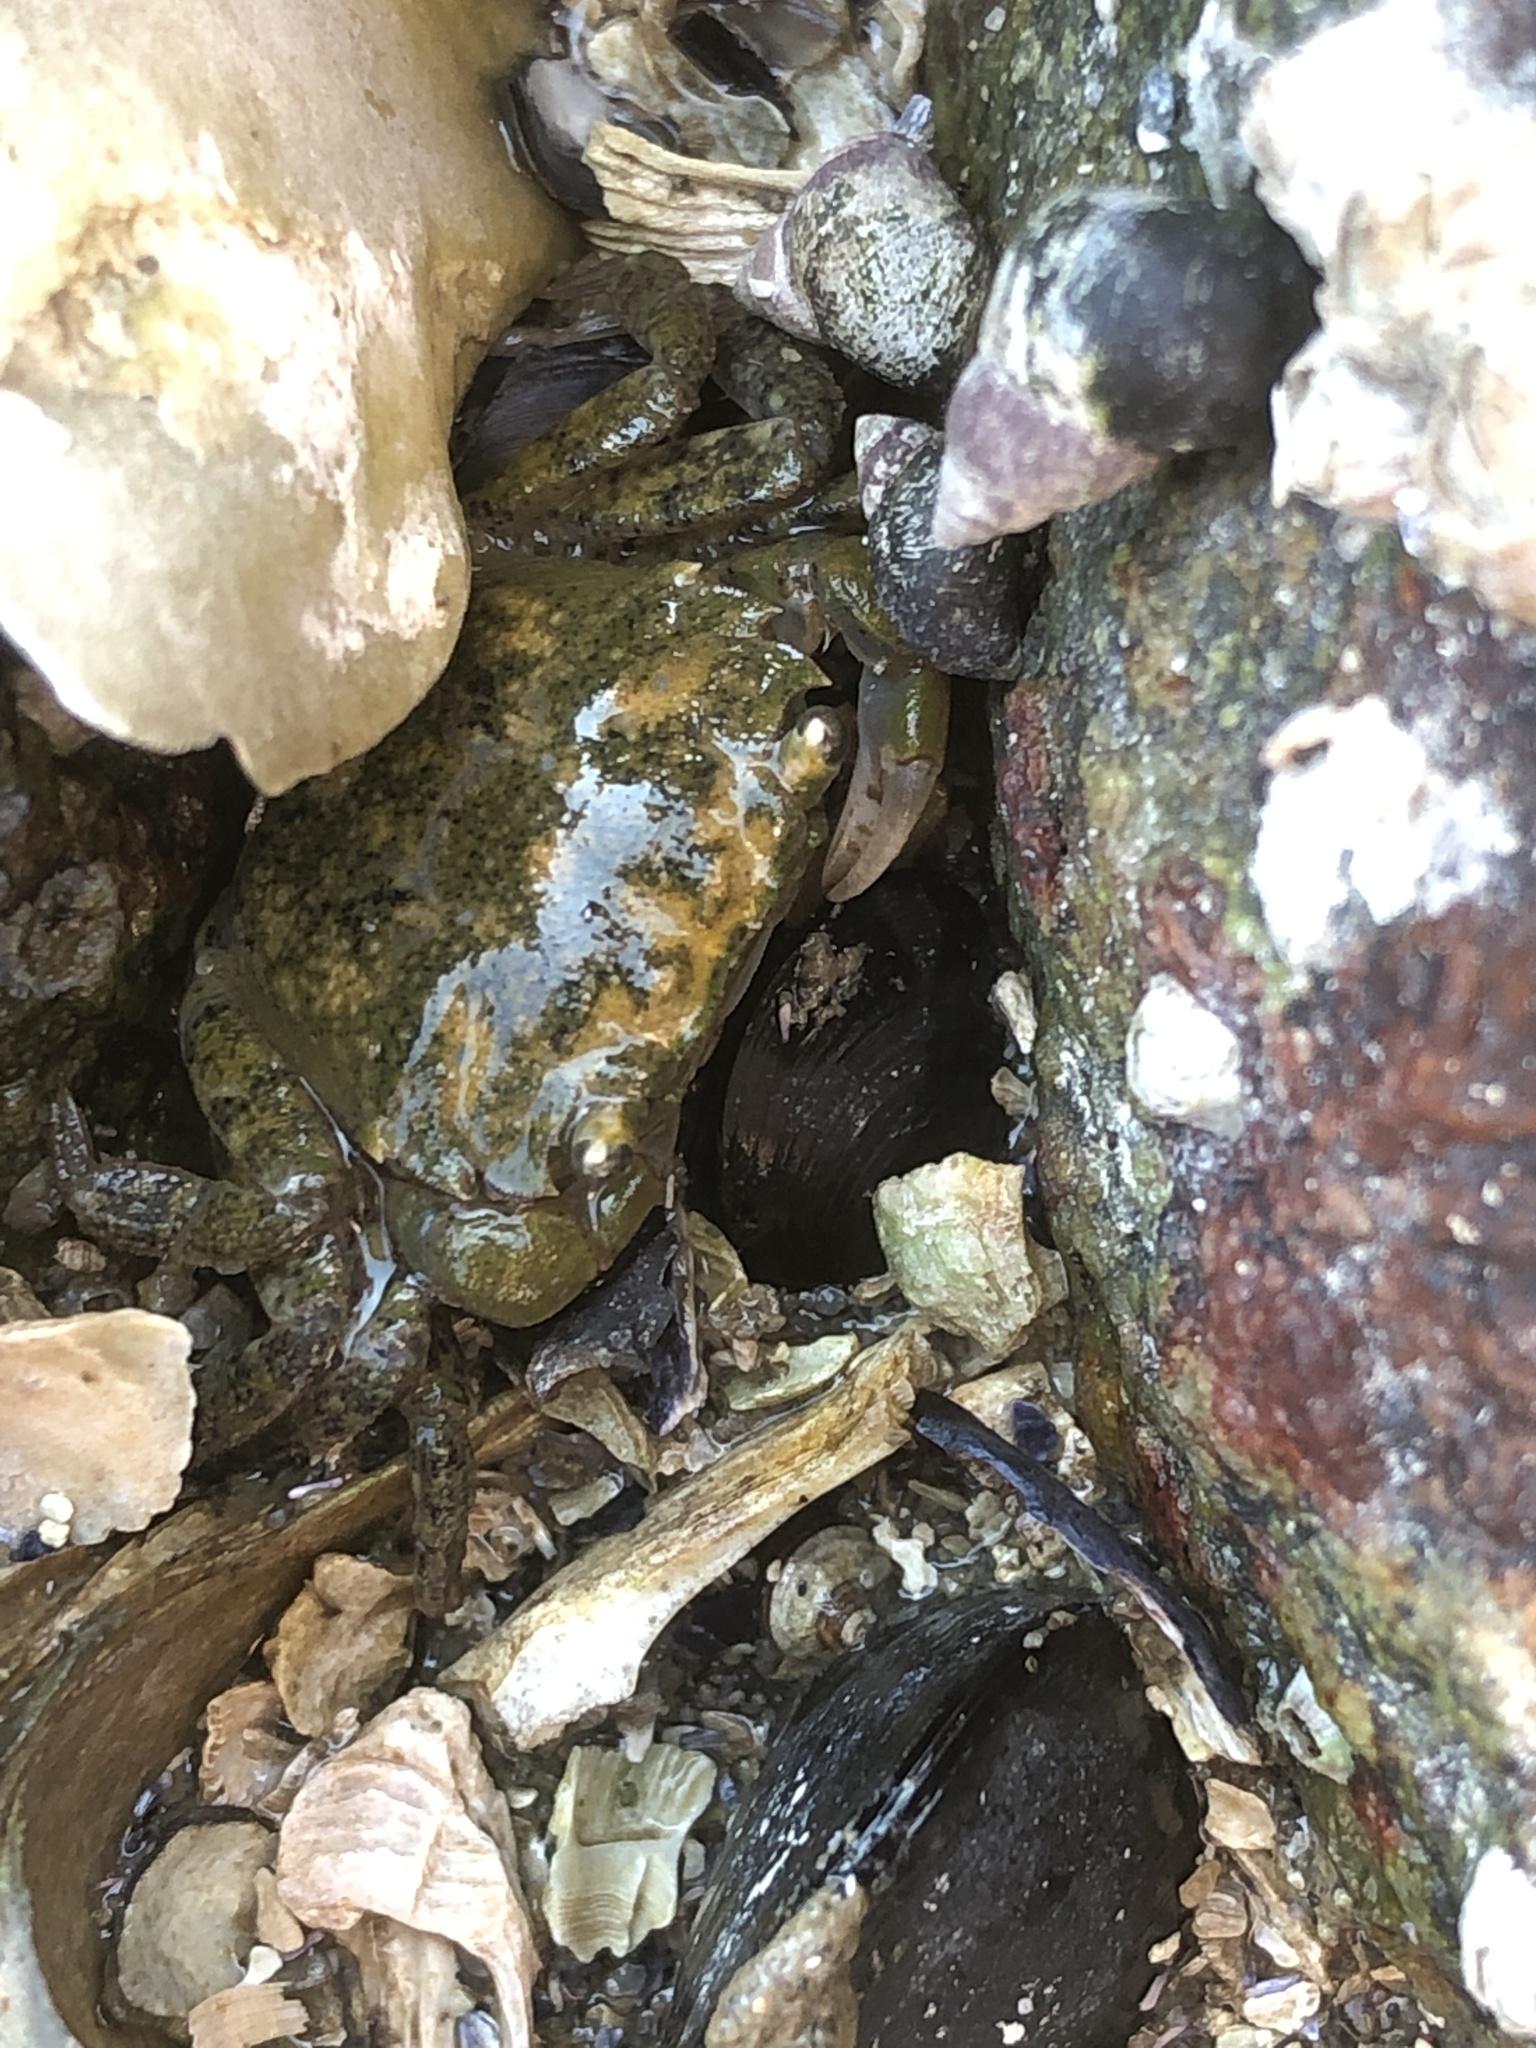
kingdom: Animalia
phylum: Arthropoda
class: Malacostraca
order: Decapoda
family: Varunidae
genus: Hemigrapsus
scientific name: Hemigrapsus oregonensis
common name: Yellow shore crab
